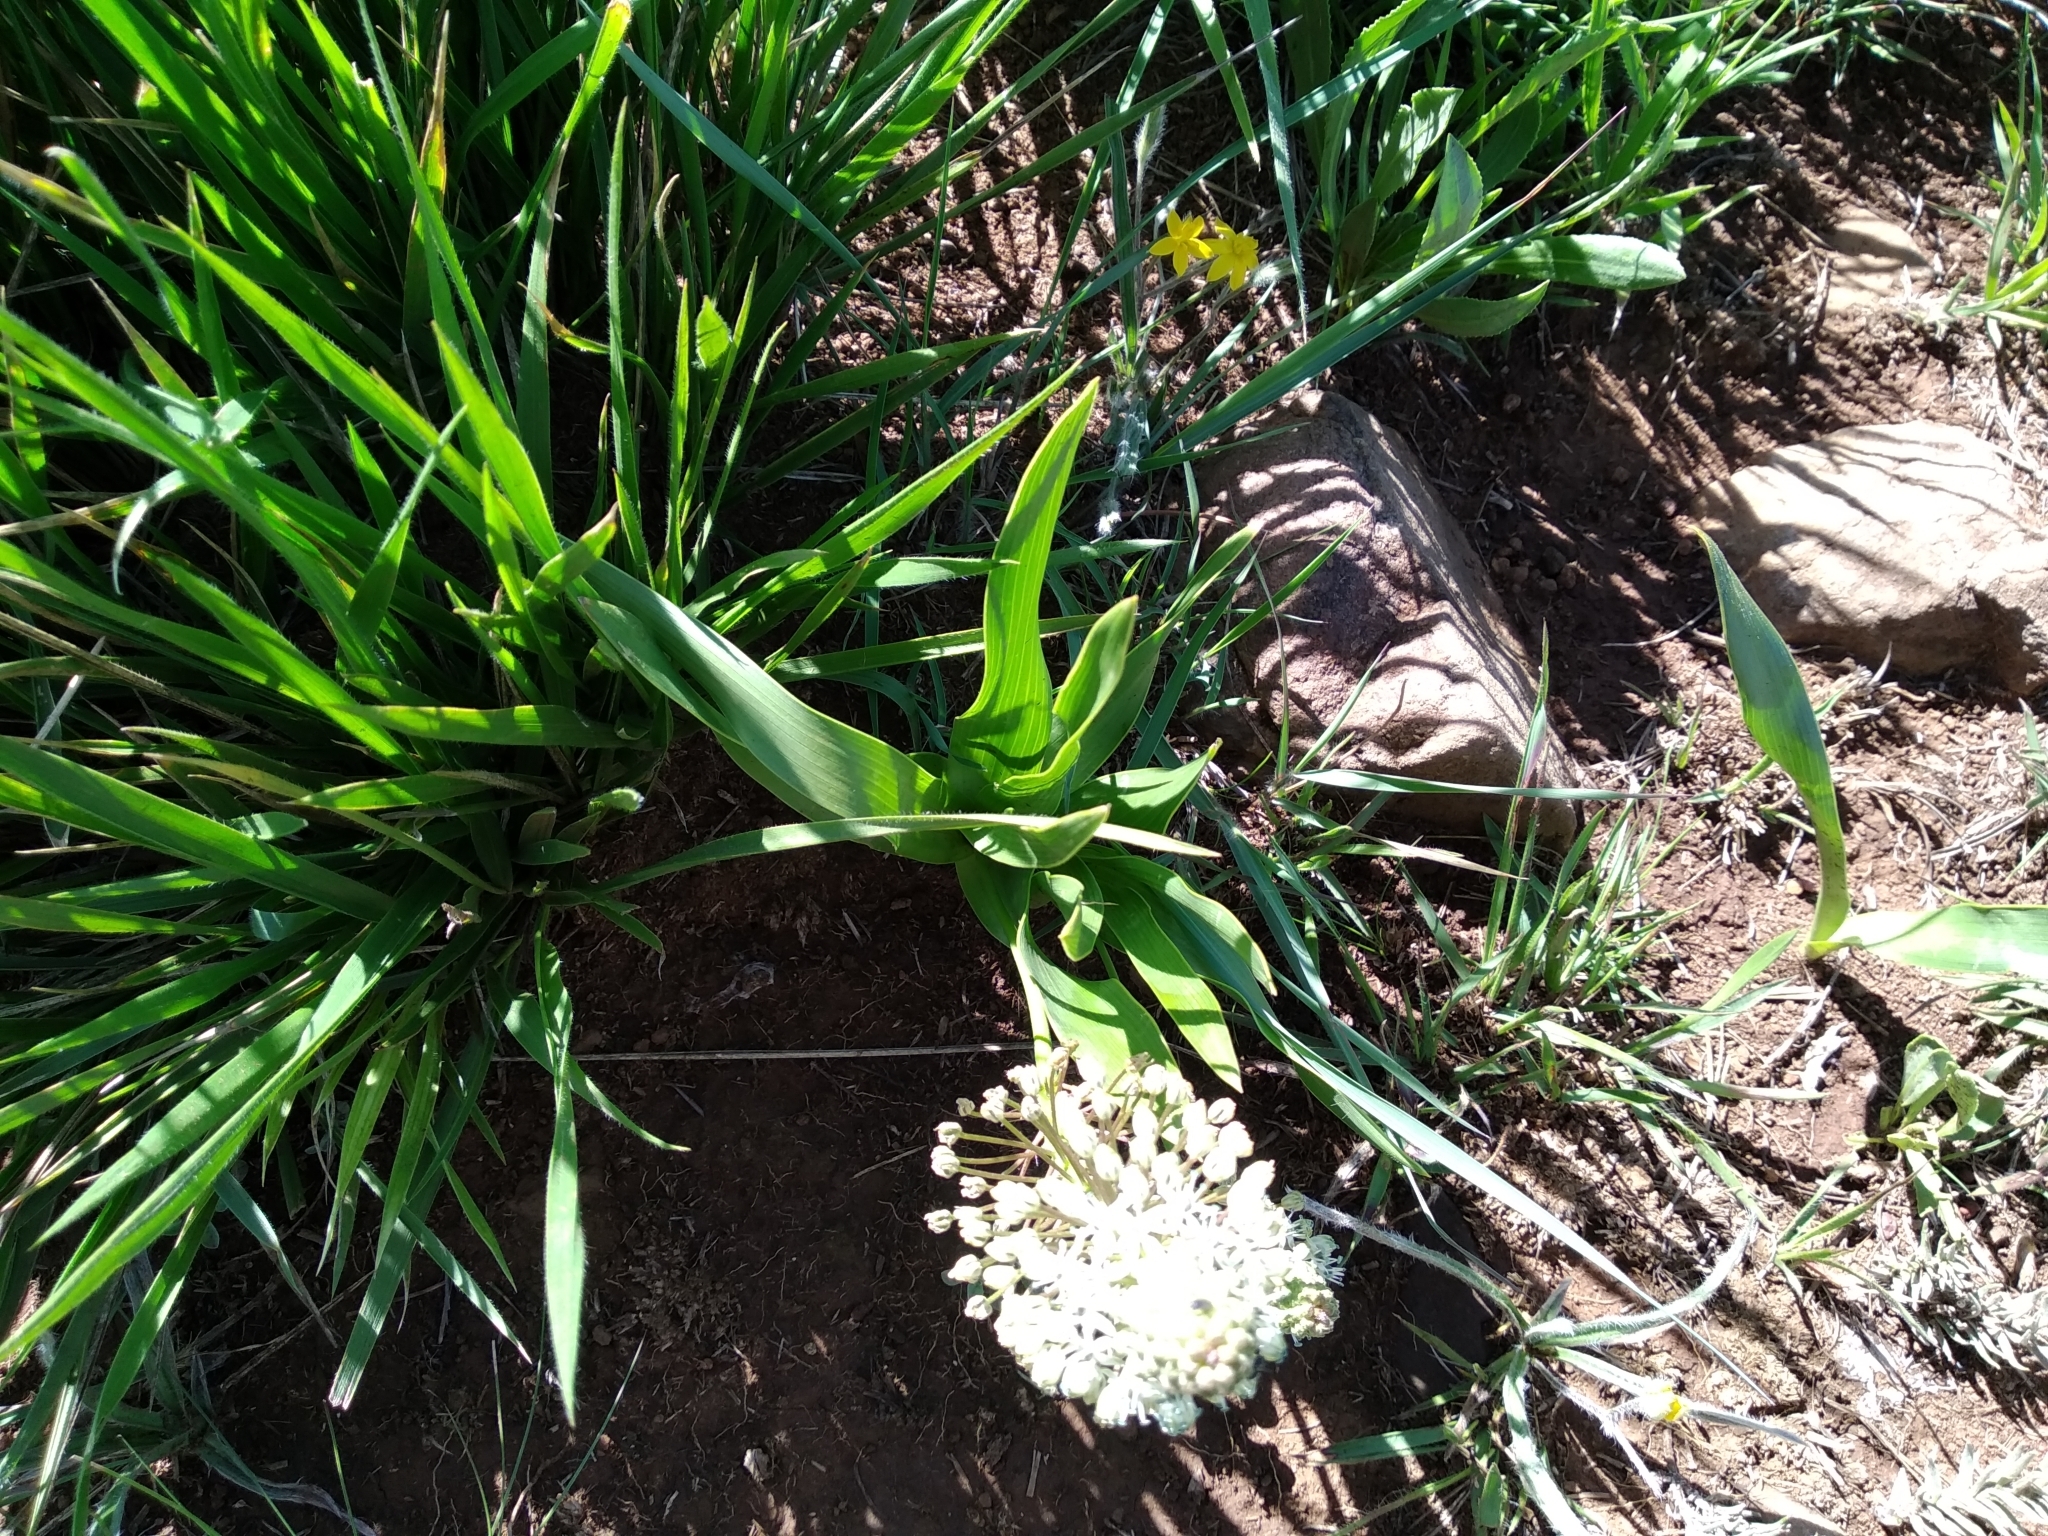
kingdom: Plantae
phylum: Tracheophyta
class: Liliopsida
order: Asparagales
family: Asparagaceae
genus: Schizocarphus
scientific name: Schizocarphus nervosus
